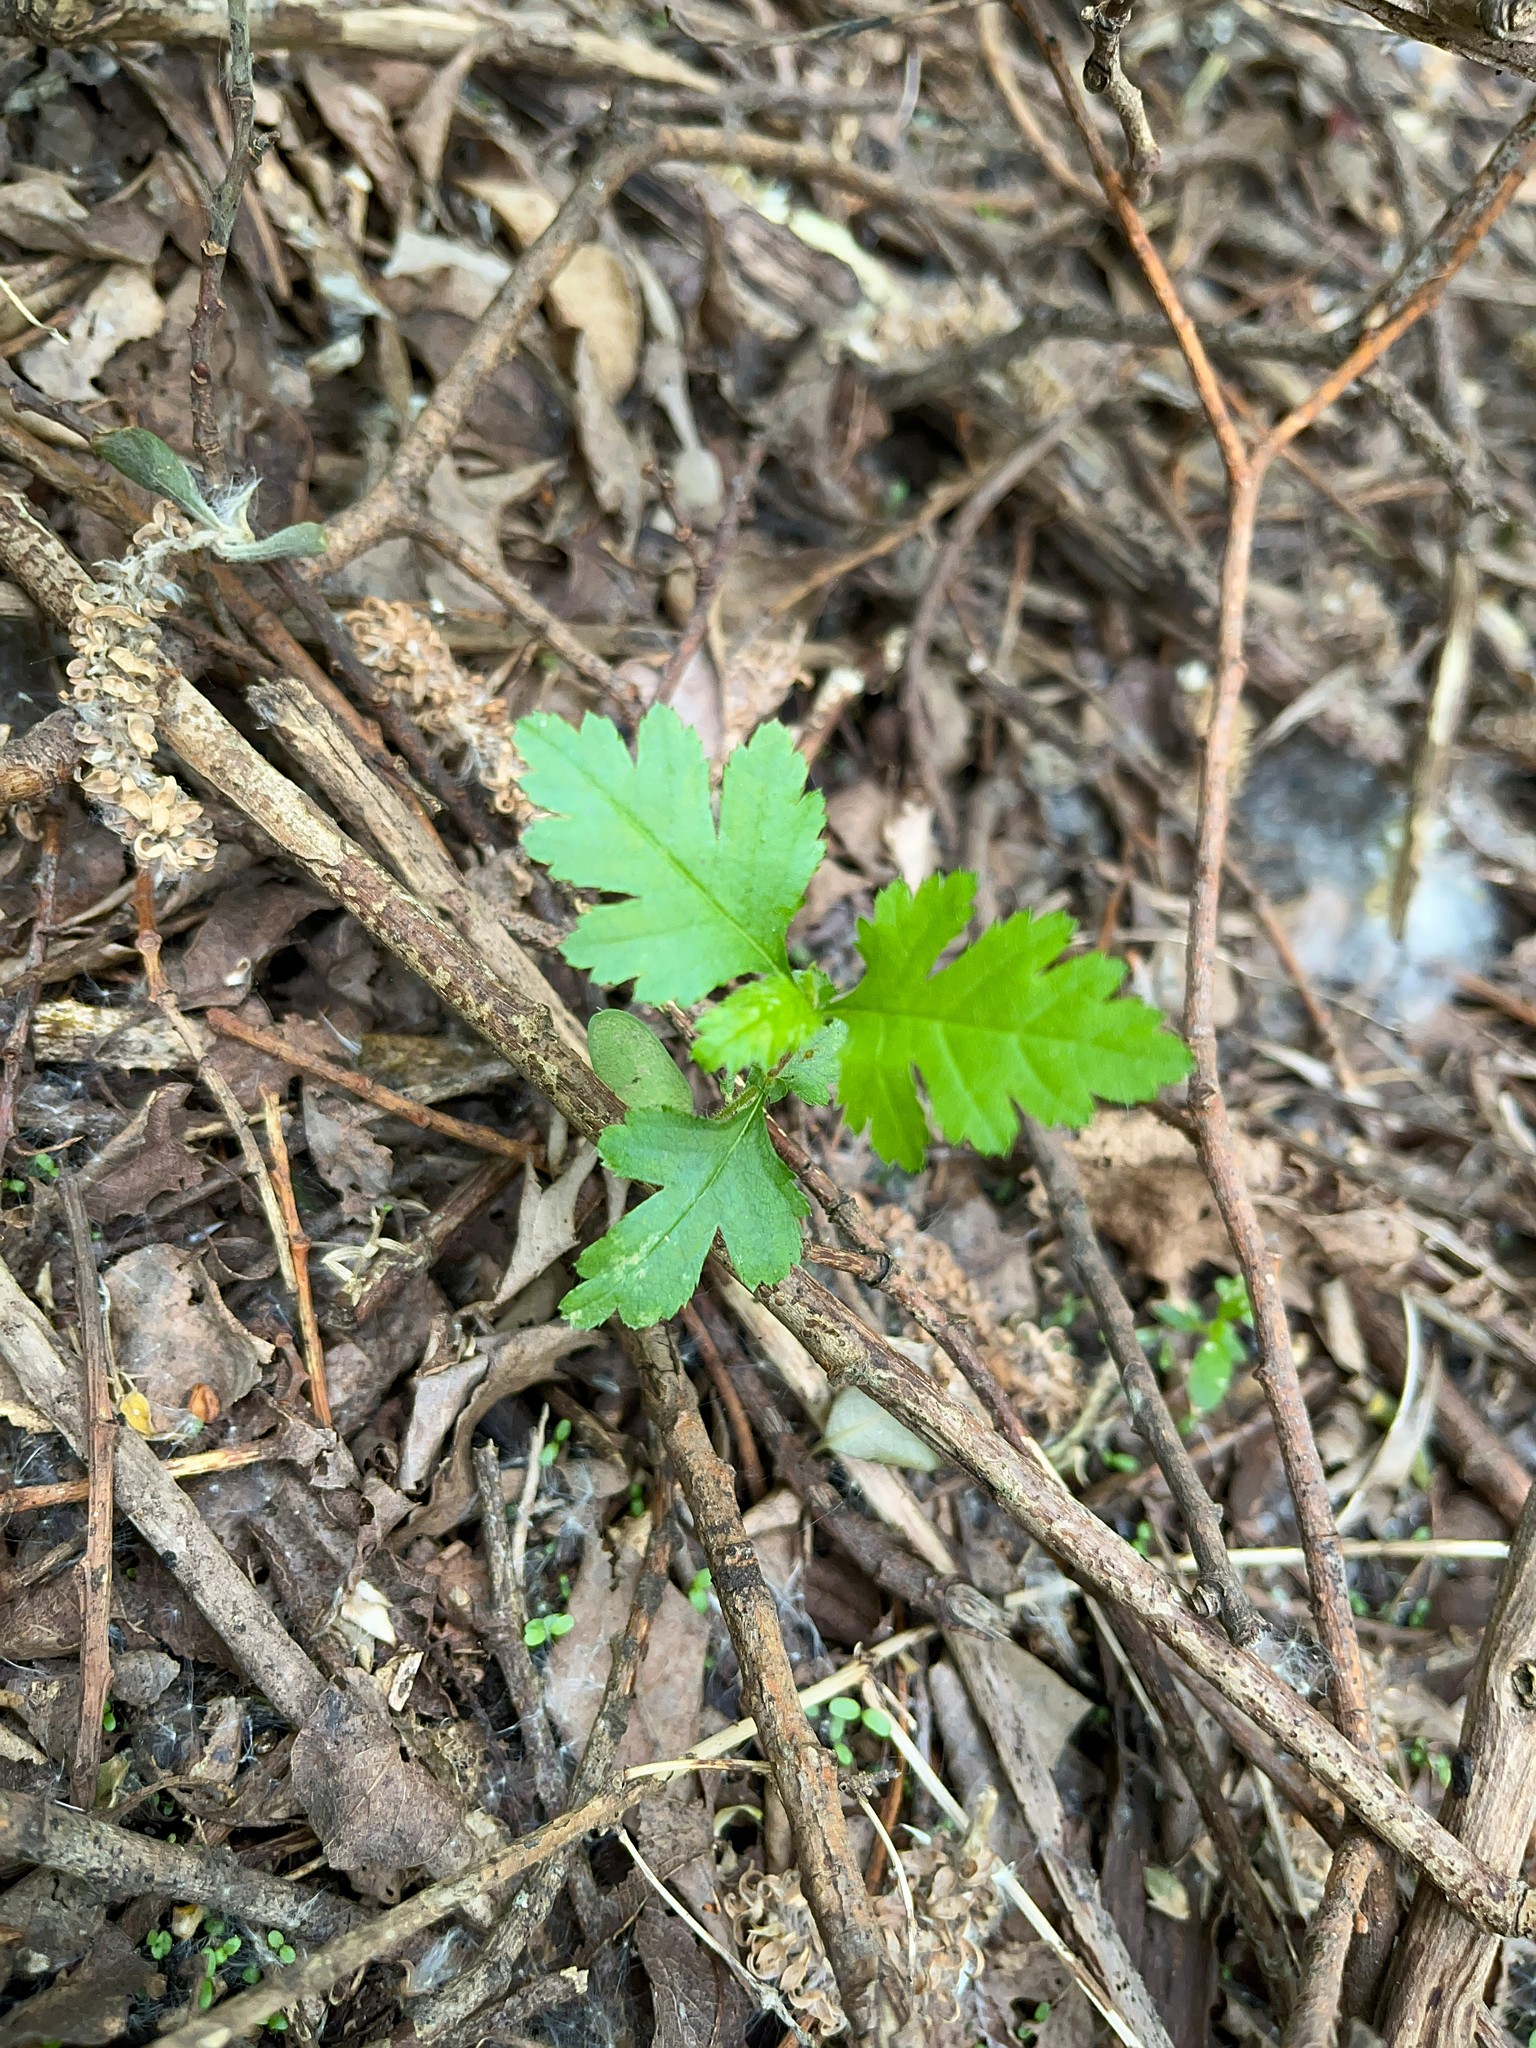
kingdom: Plantae
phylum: Tracheophyta
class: Magnoliopsida
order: Rosales
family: Rosaceae
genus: Crataegus
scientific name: Crataegus monogyna
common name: Hawthorn
